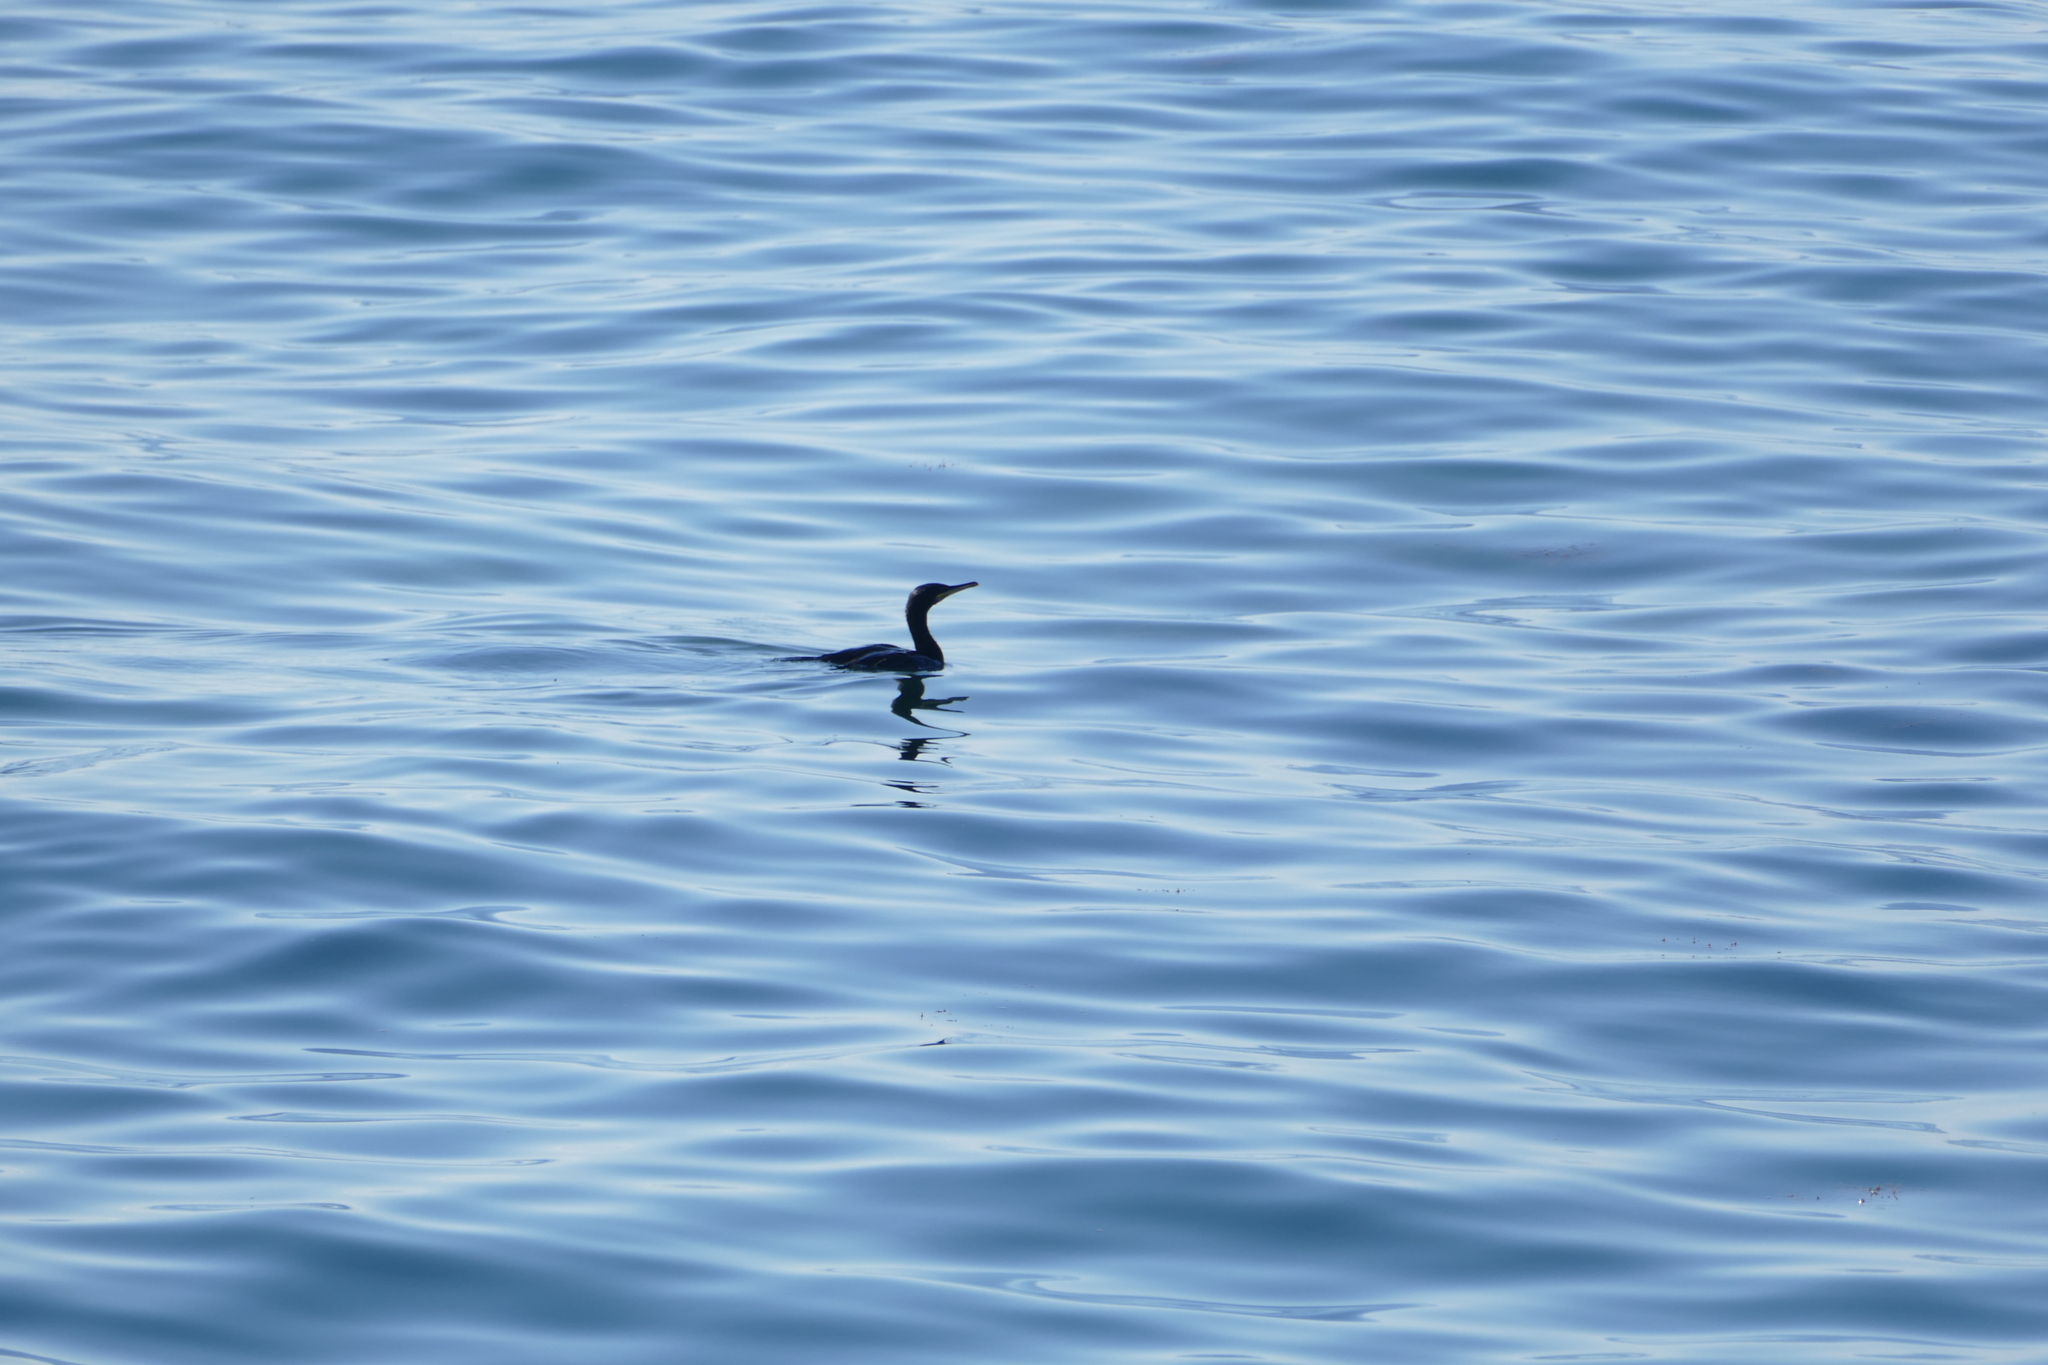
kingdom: Animalia
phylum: Chordata
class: Aves
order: Suliformes
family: Phalacrocoracidae
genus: Phalacrocorax
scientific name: Phalacrocorax aristotelis
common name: European shag
